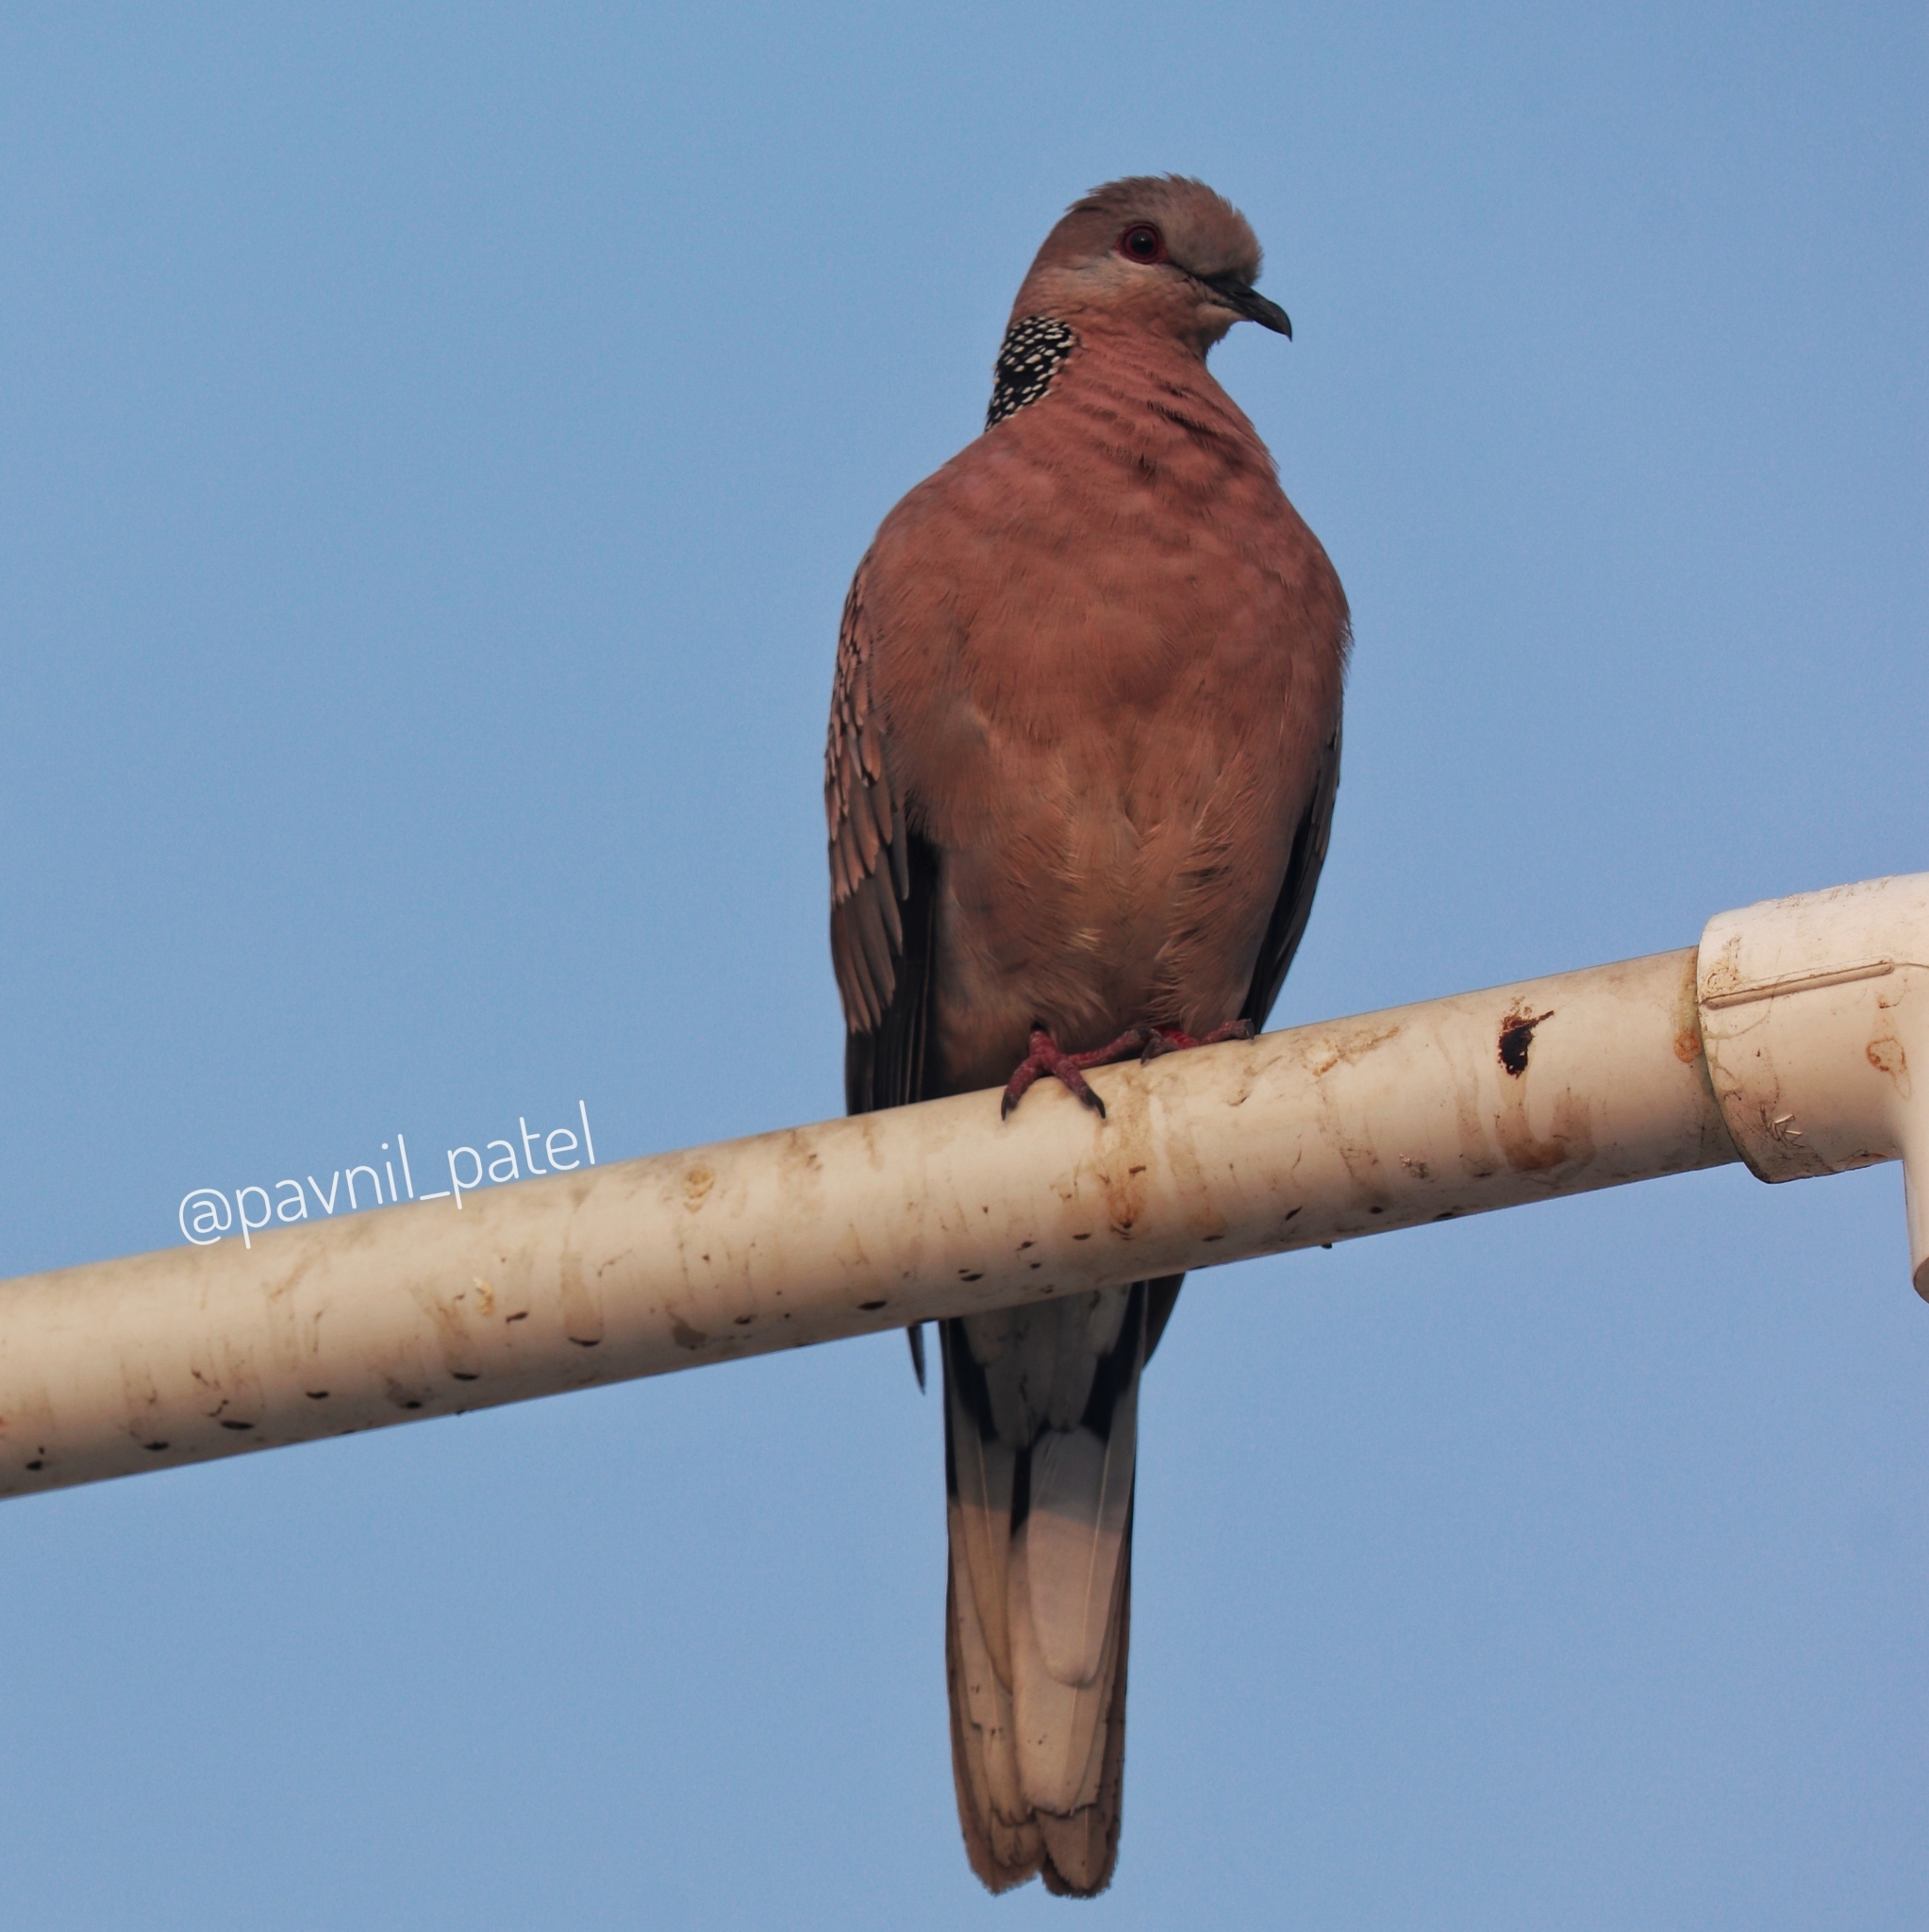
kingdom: Animalia
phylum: Chordata
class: Aves
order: Columbiformes
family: Columbidae
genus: Spilopelia
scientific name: Spilopelia chinensis
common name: Spotted dove
